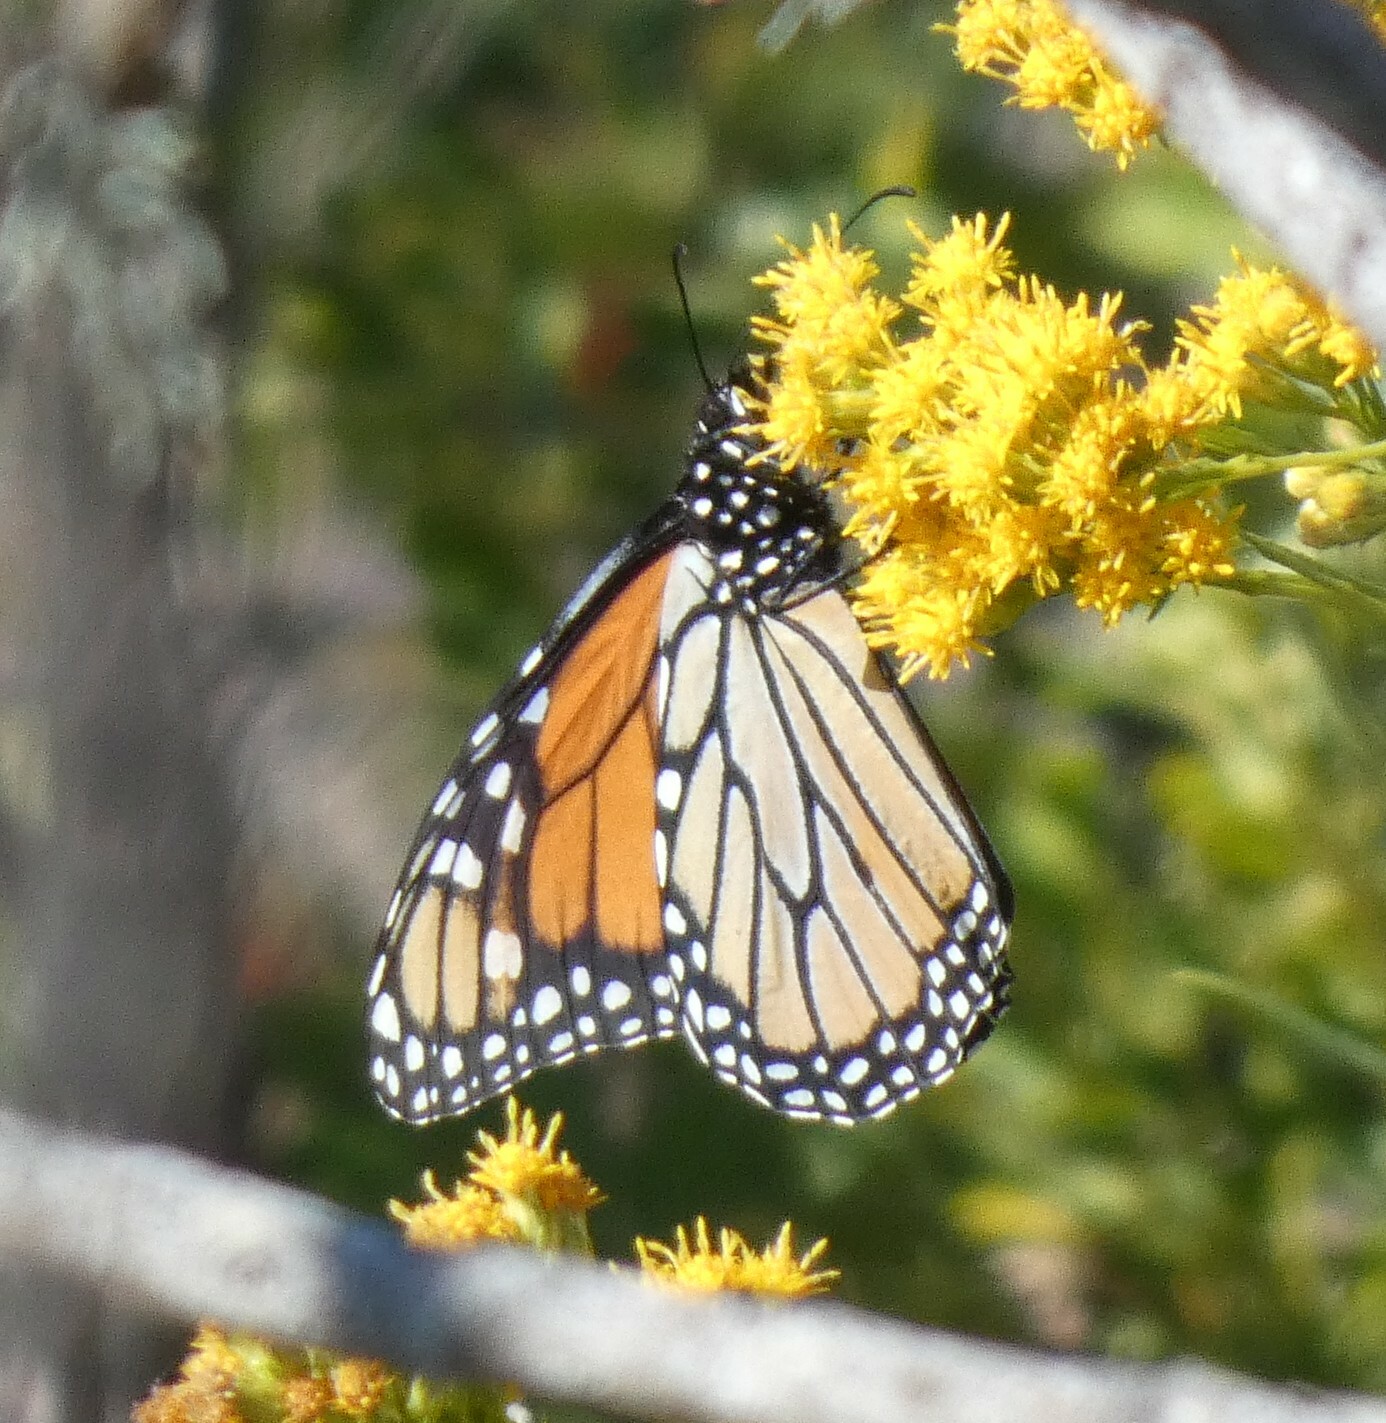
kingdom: Animalia
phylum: Arthropoda
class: Insecta
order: Lepidoptera
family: Nymphalidae
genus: Danaus
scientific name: Danaus plexippus
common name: Monarch
